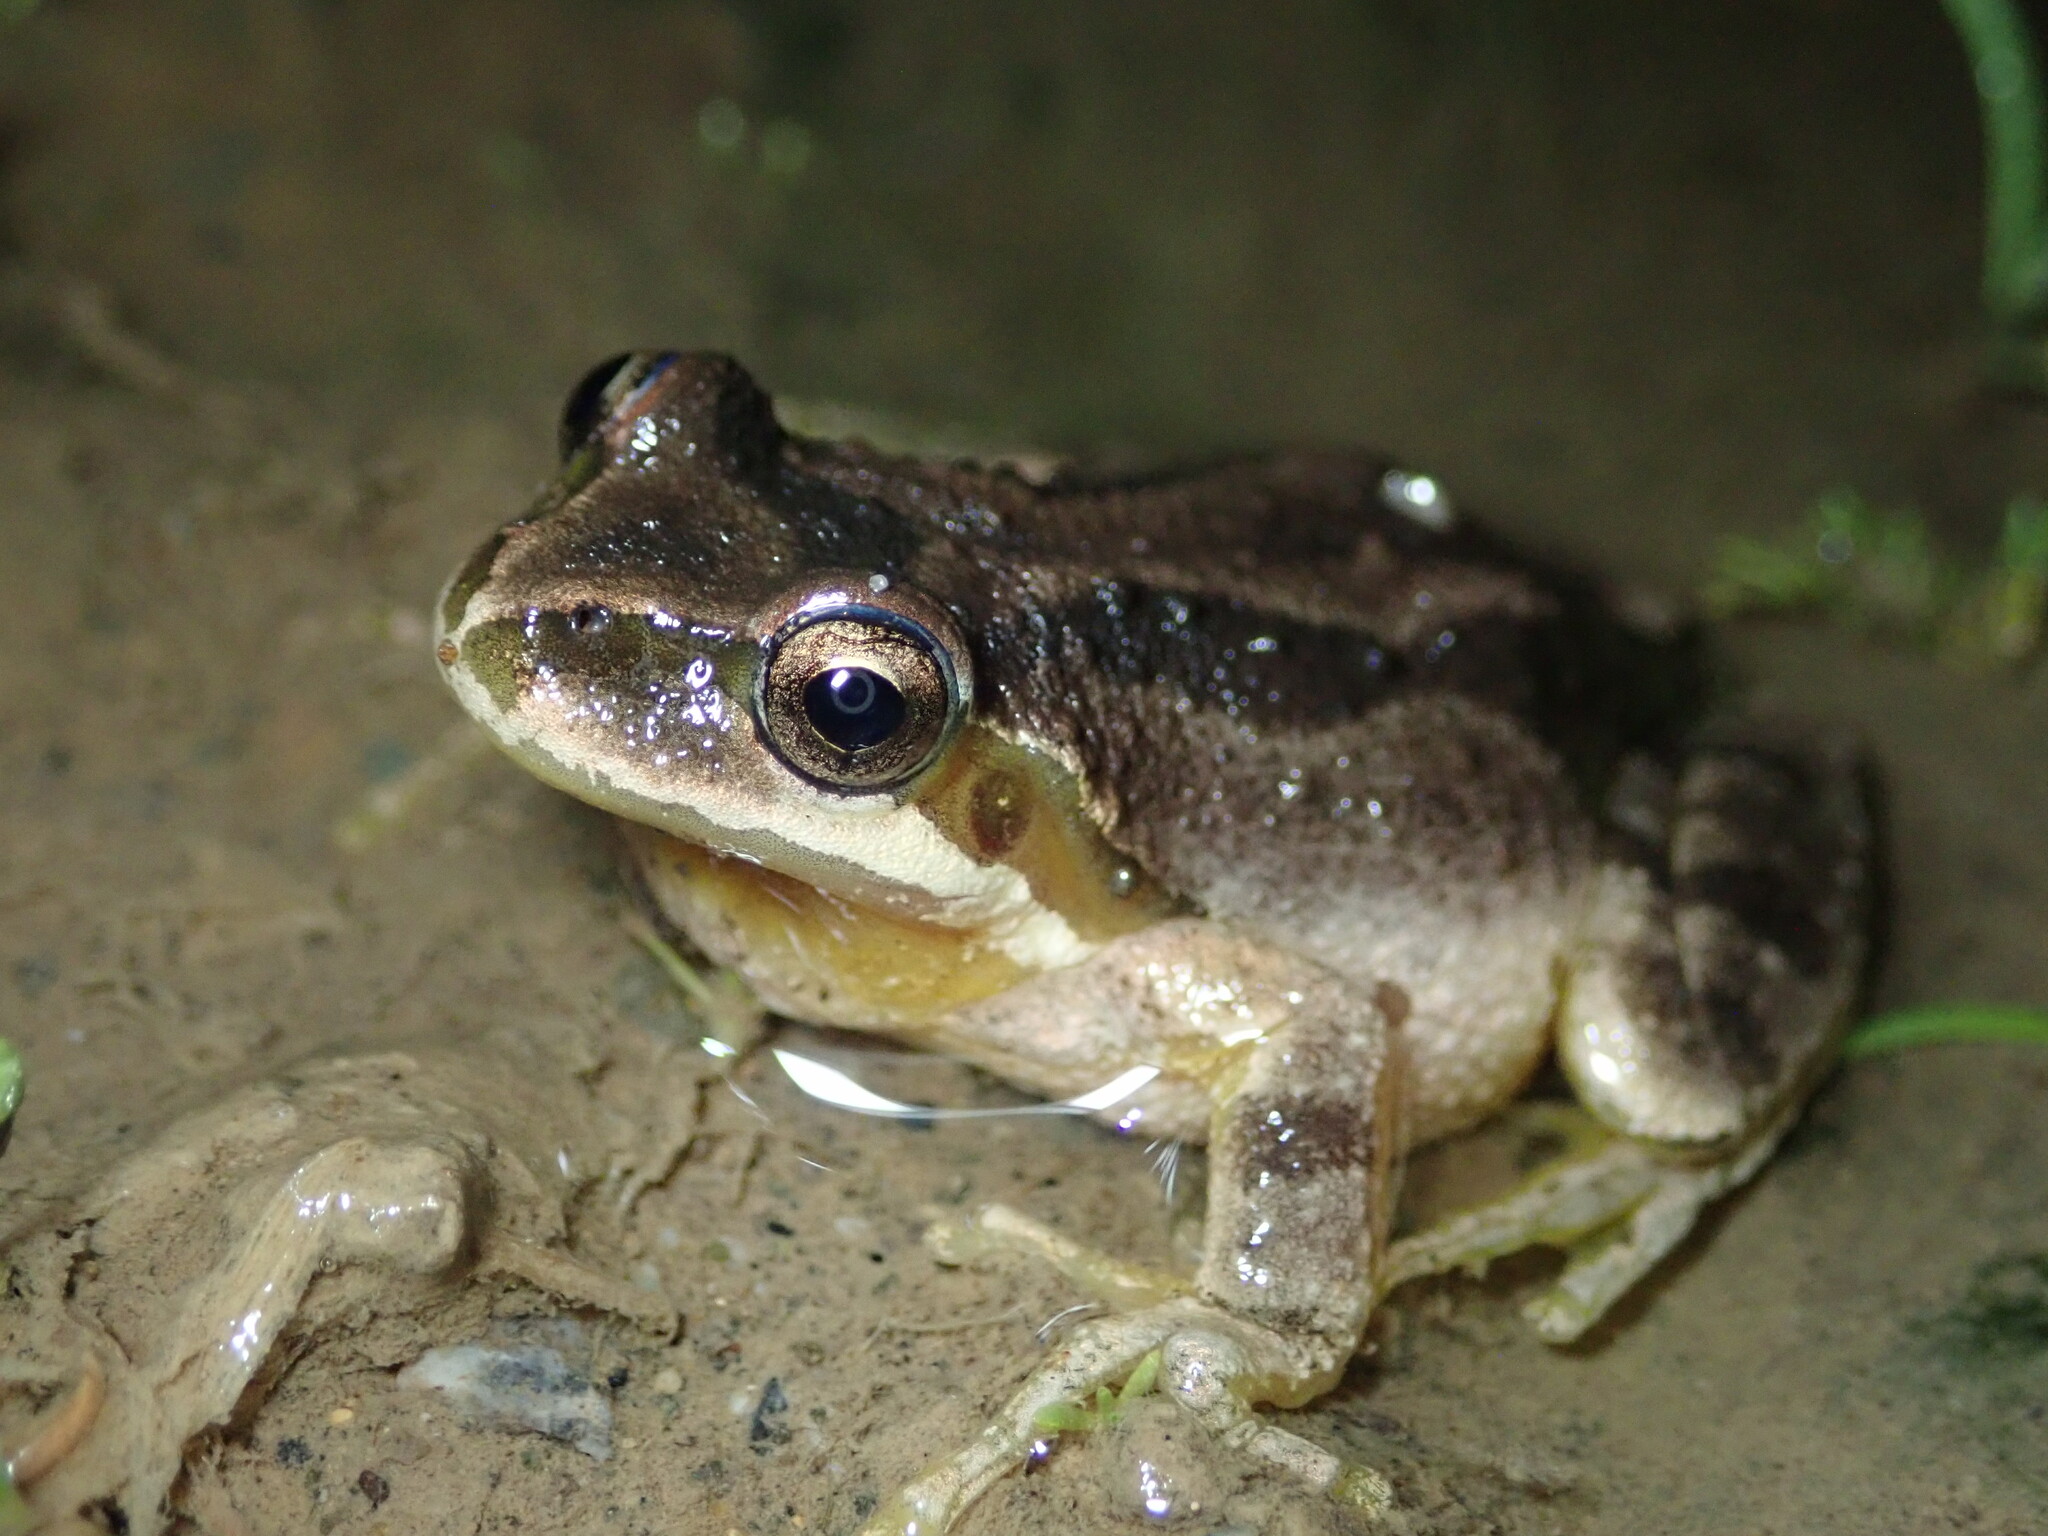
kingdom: Animalia
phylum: Chordata
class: Amphibia
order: Anura
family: Hylidae
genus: Pseudacris
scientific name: Pseudacris regilla
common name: Pacific chorus frog
